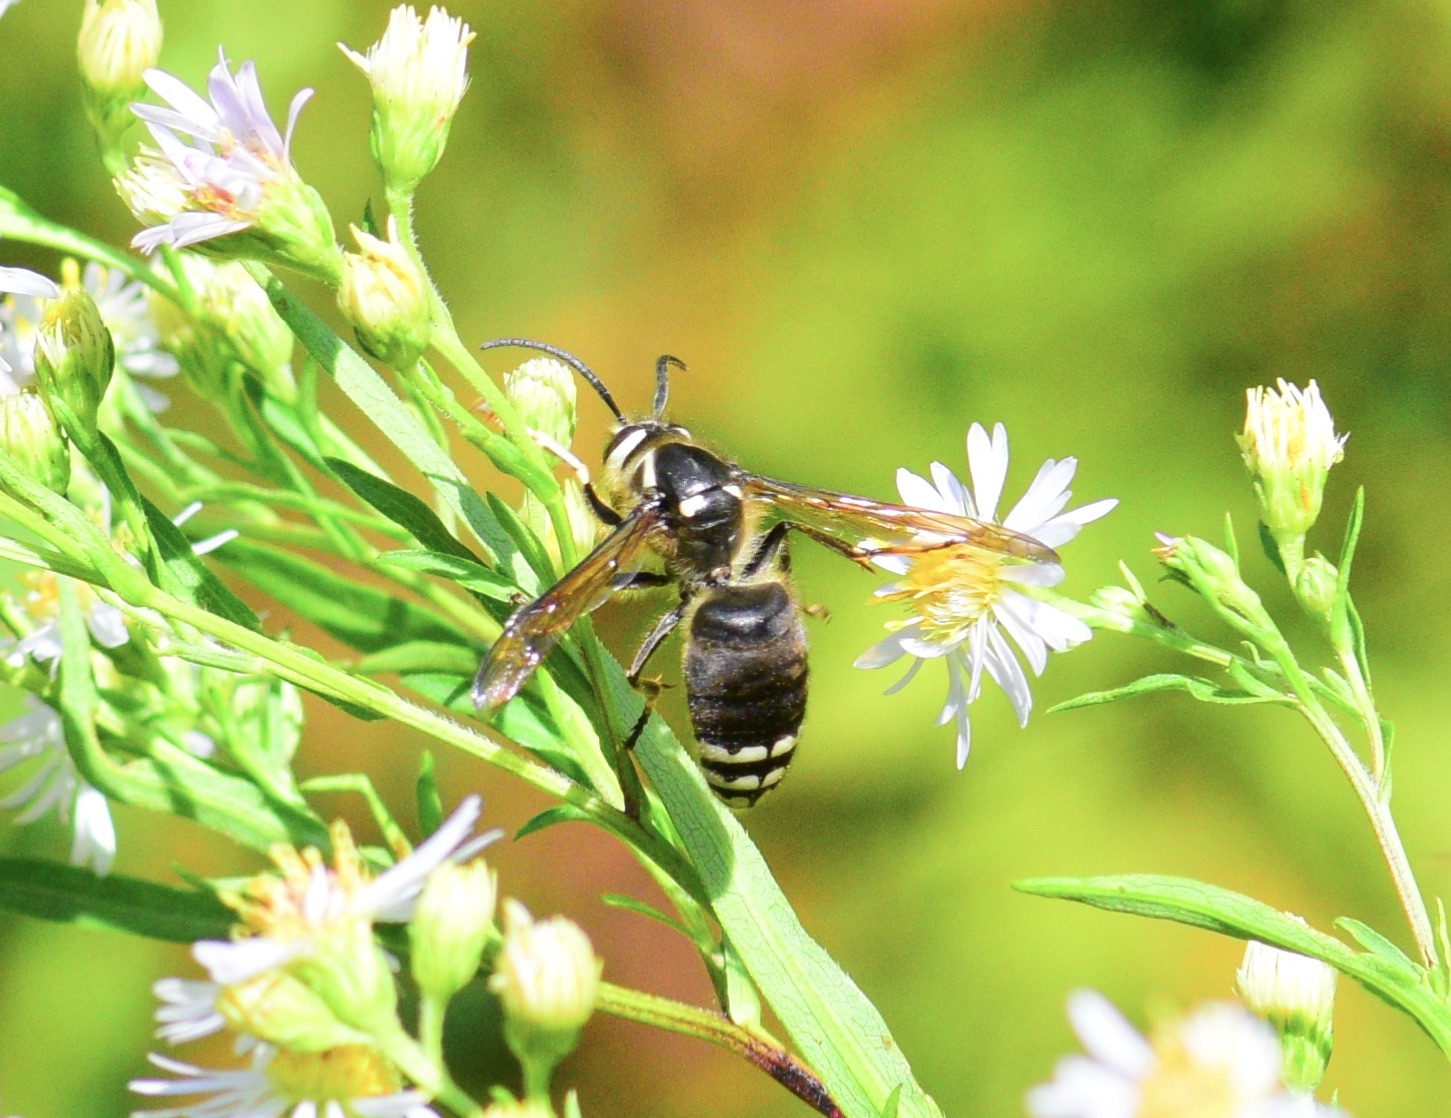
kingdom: Animalia
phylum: Arthropoda
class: Insecta
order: Hymenoptera
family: Vespidae
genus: Dolichovespula
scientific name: Dolichovespula maculata
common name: Bald-faced hornet
